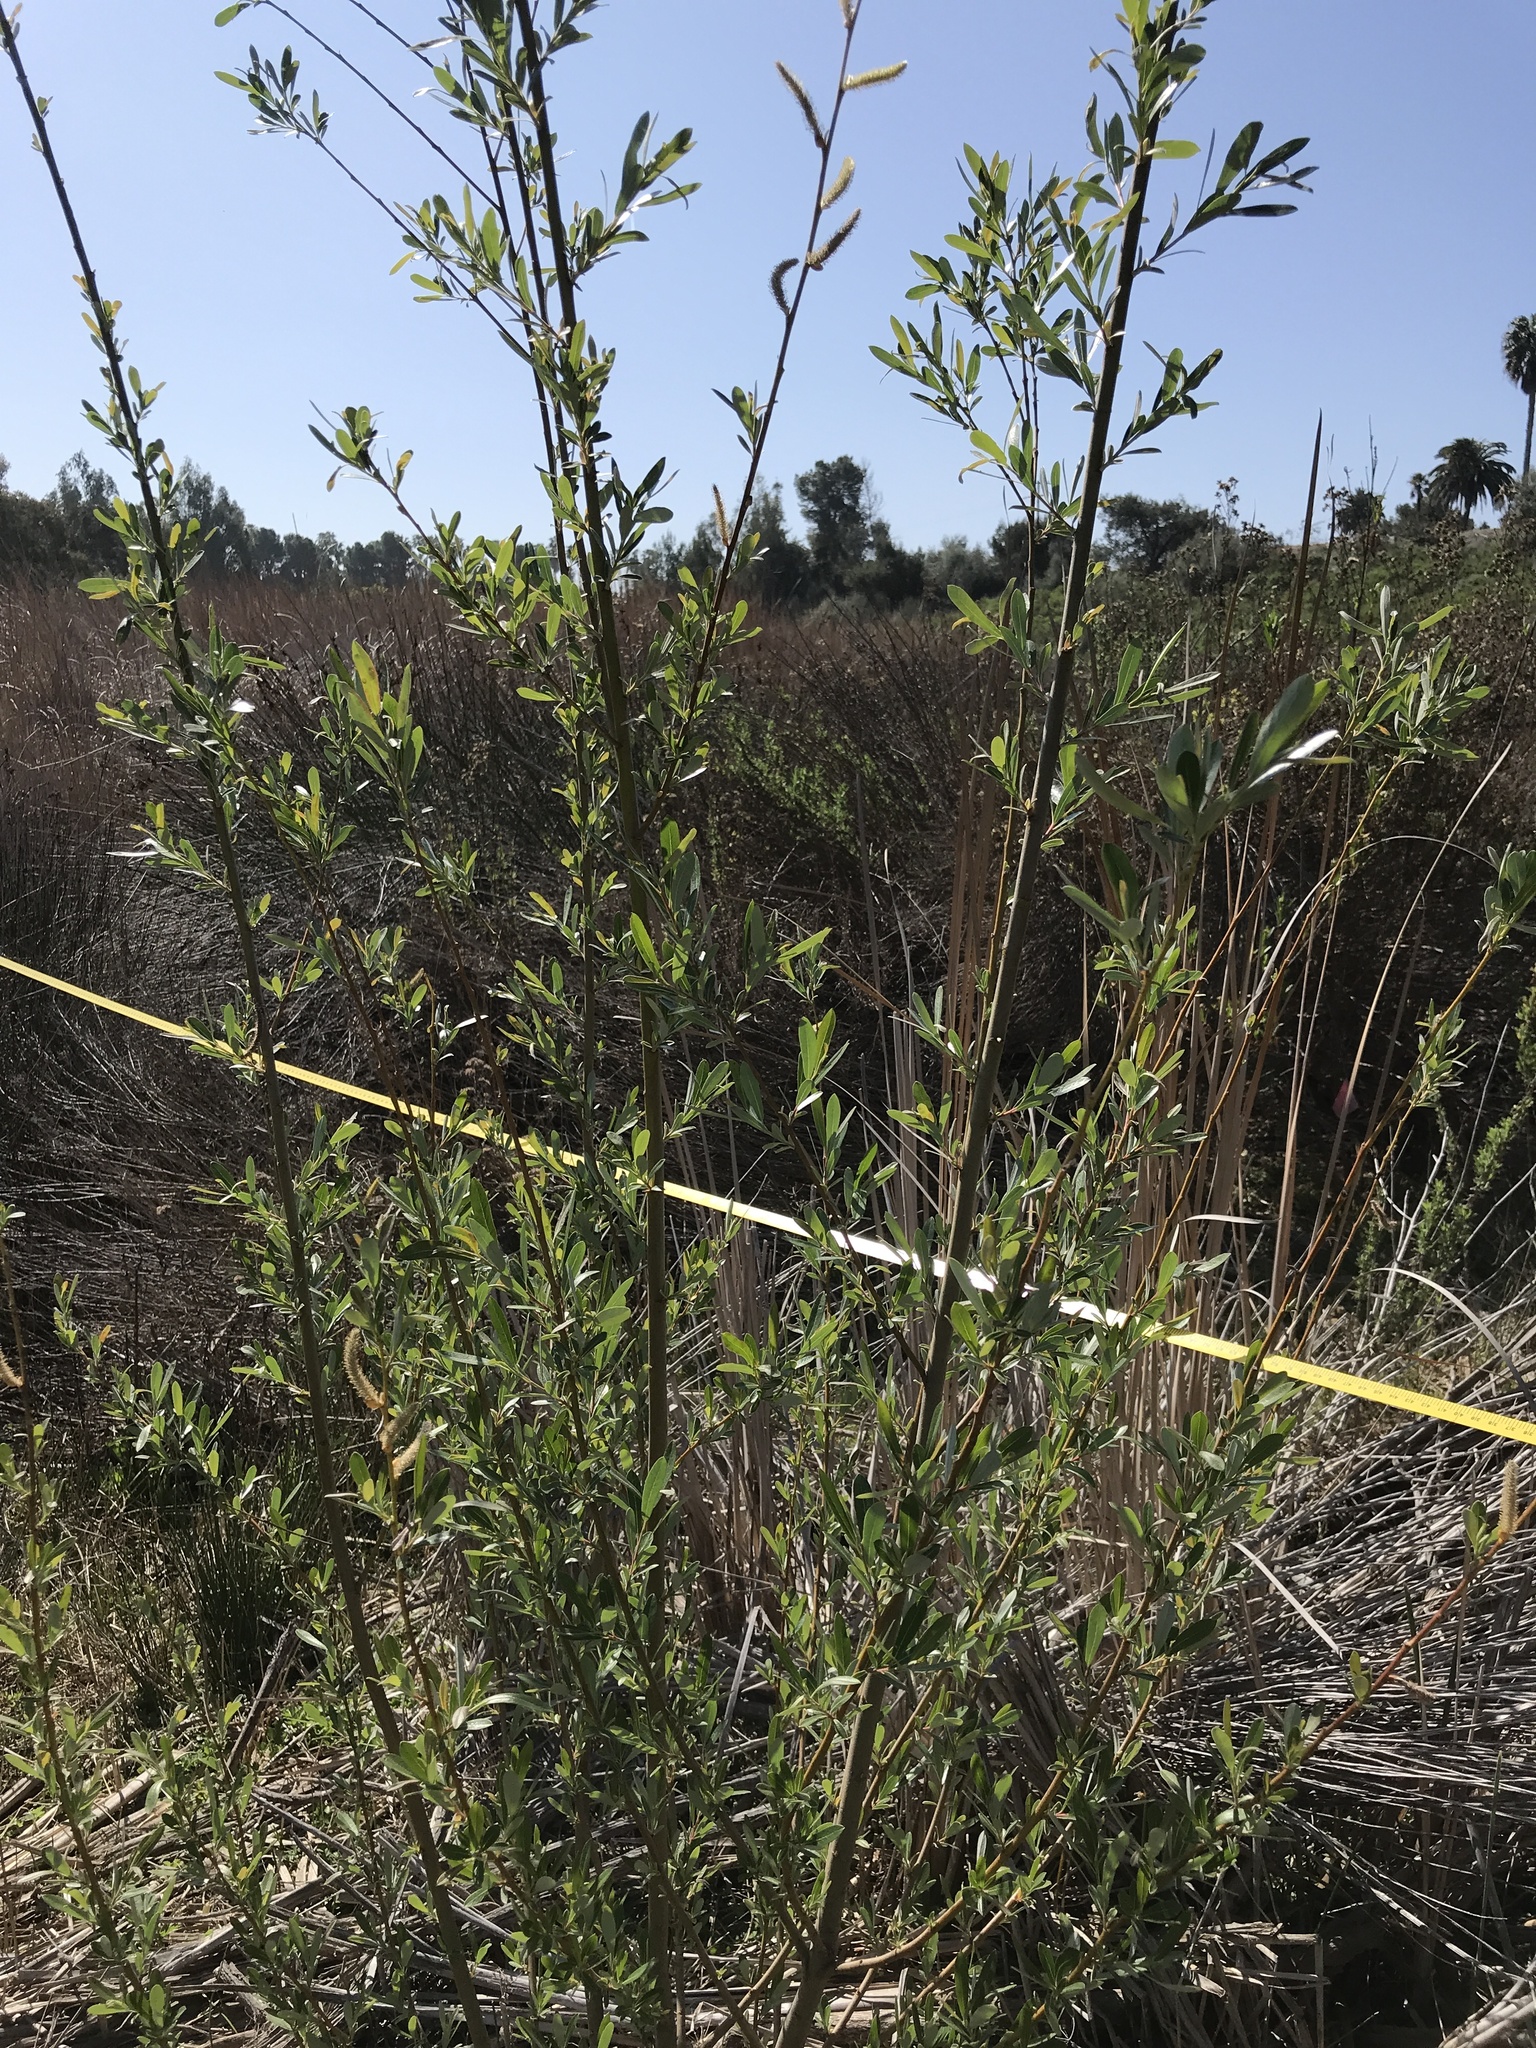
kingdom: Plantae
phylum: Tracheophyta
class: Magnoliopsida
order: Malpighiales
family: Salicaceae
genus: Salix
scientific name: Salix lasiolepis
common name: Arroyo willow
